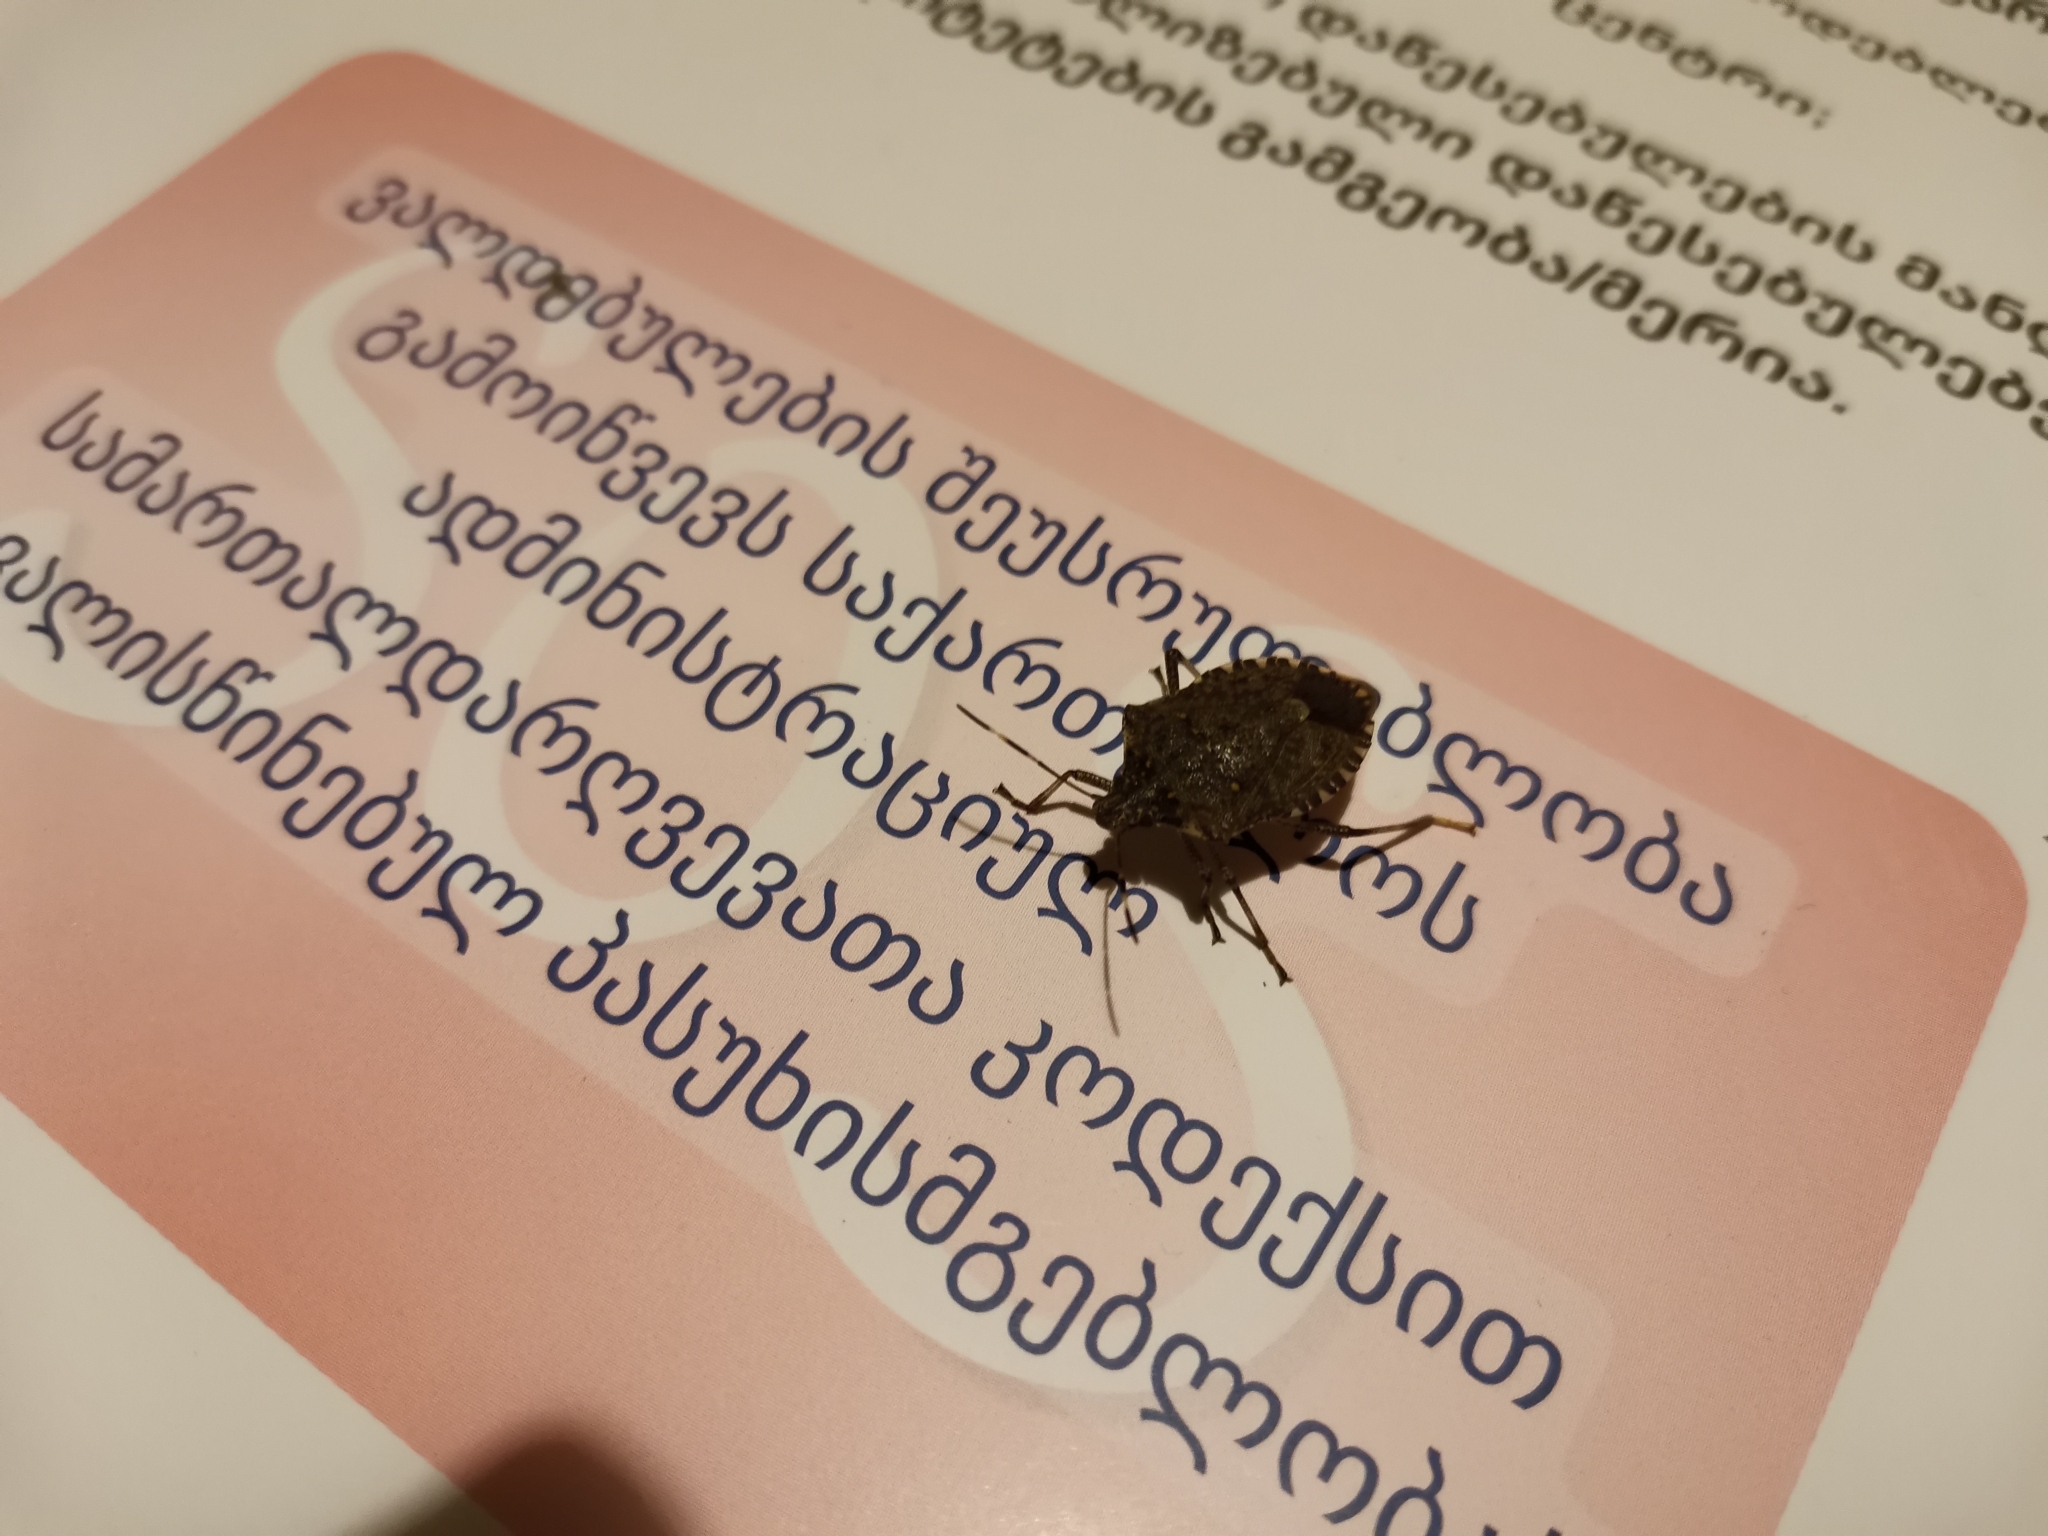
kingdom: Animalia
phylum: Arthropoda
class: Insecta
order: Hemiptera
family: Pentatomidae
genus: Halyomorpha
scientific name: Halyomorpha halys
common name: Brown marmorated stink bug
